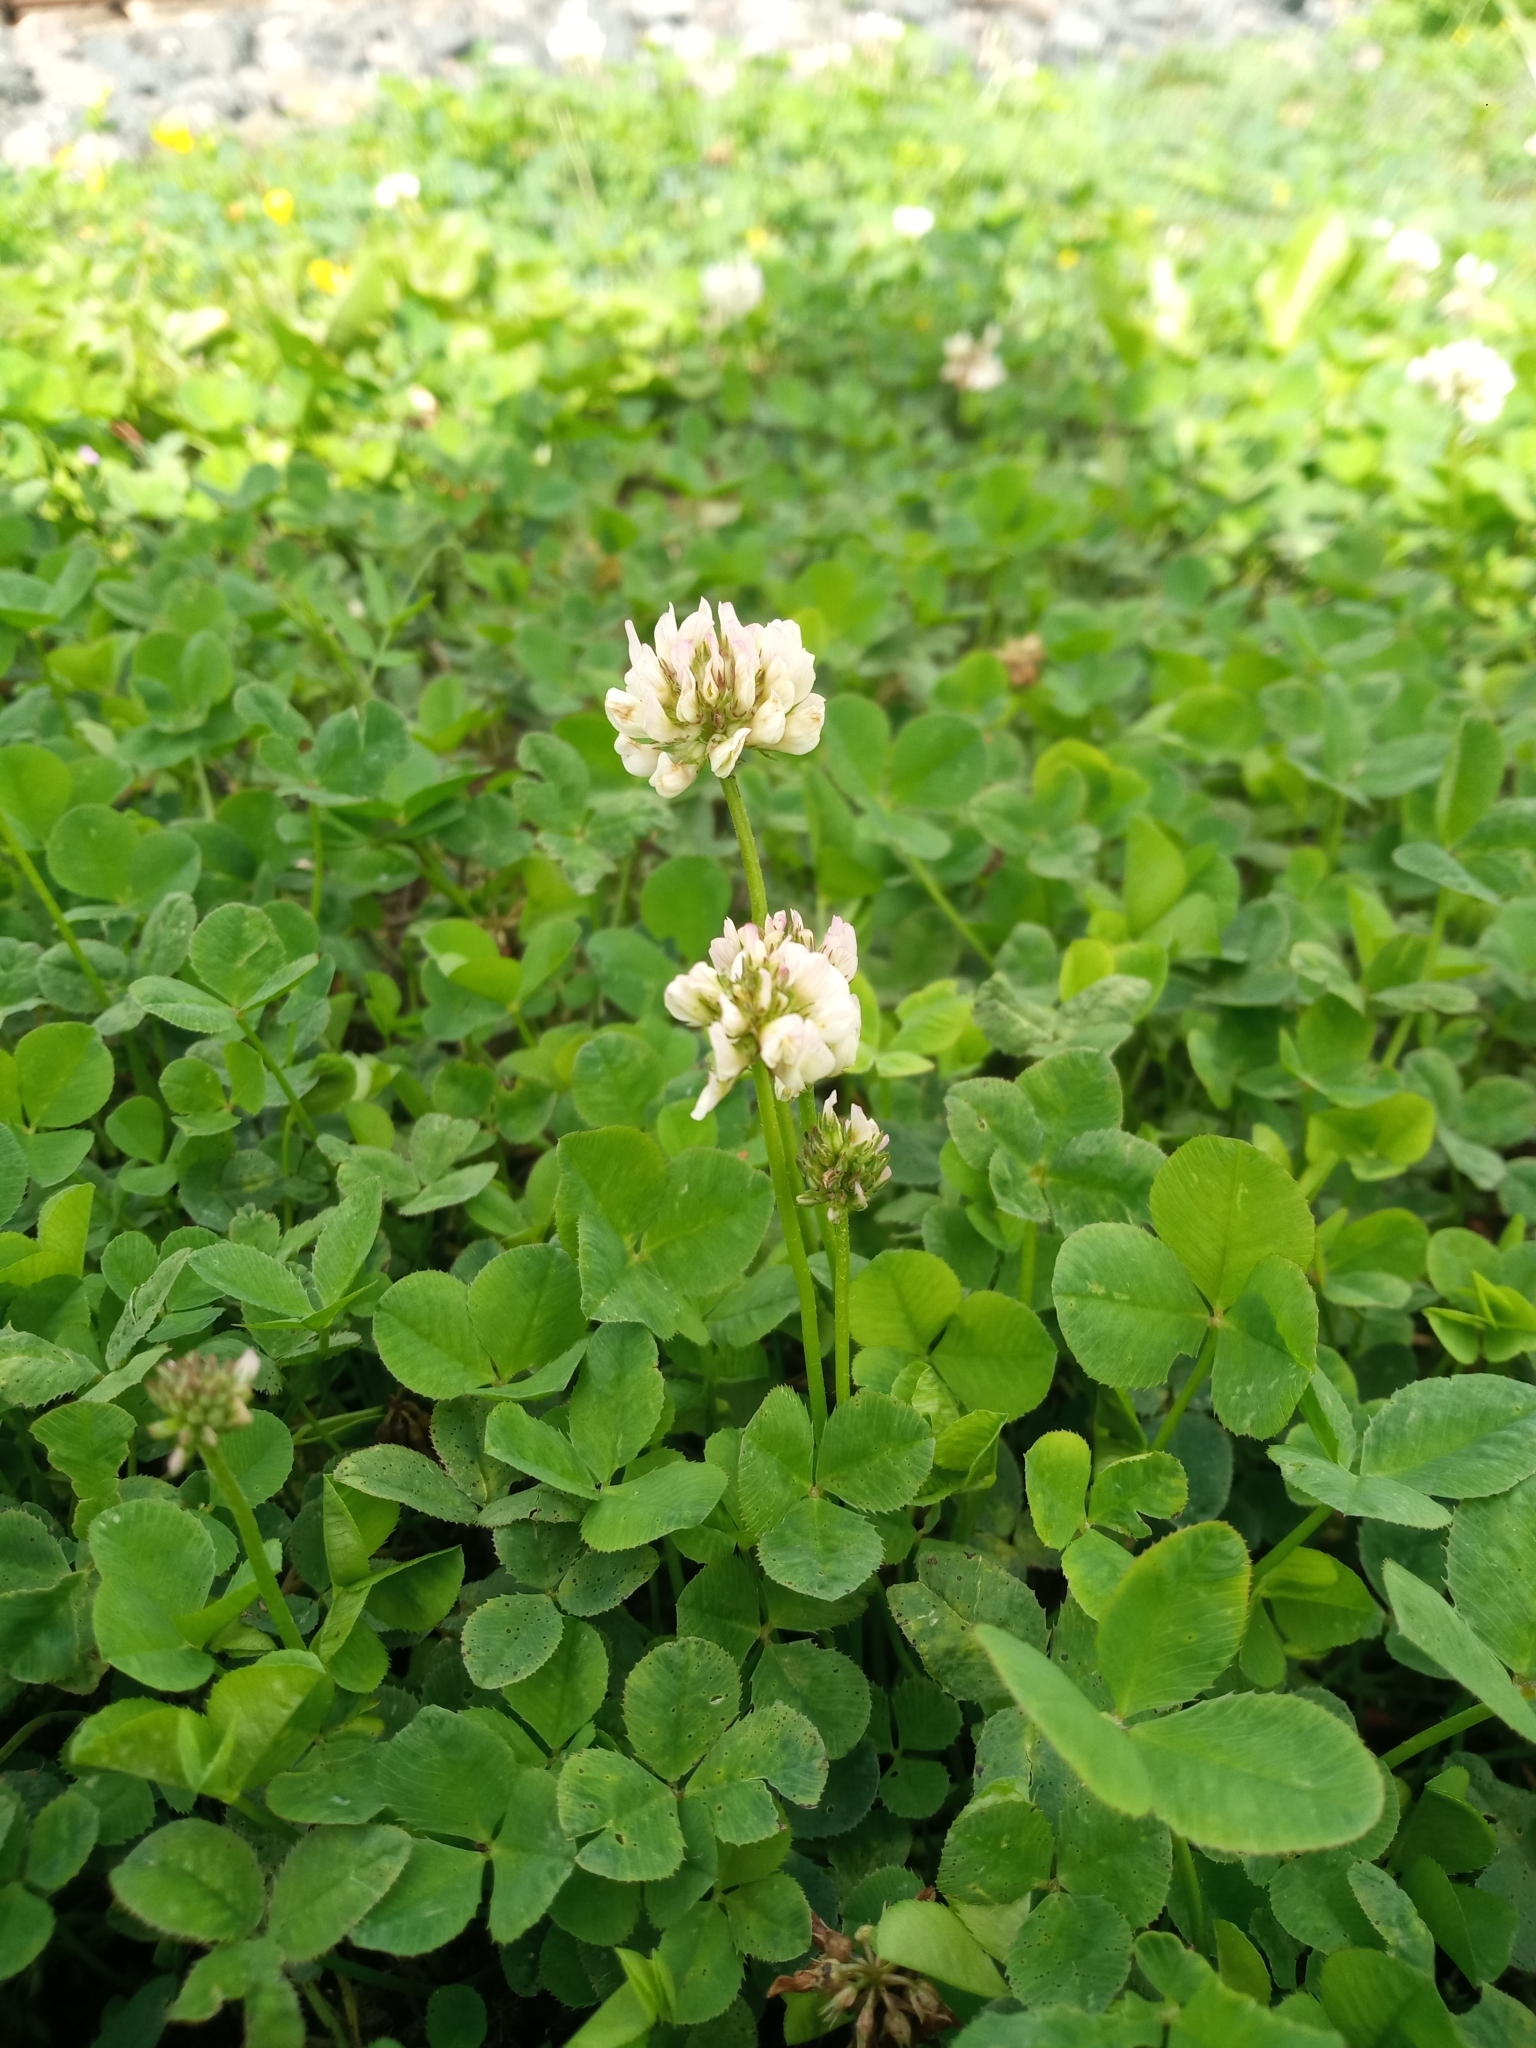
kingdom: Plantae
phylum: Tracheophyta
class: Magnoliopsida
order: Fabales
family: Fabaceae
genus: Trifolium
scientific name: Trifolium repens
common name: White clover
